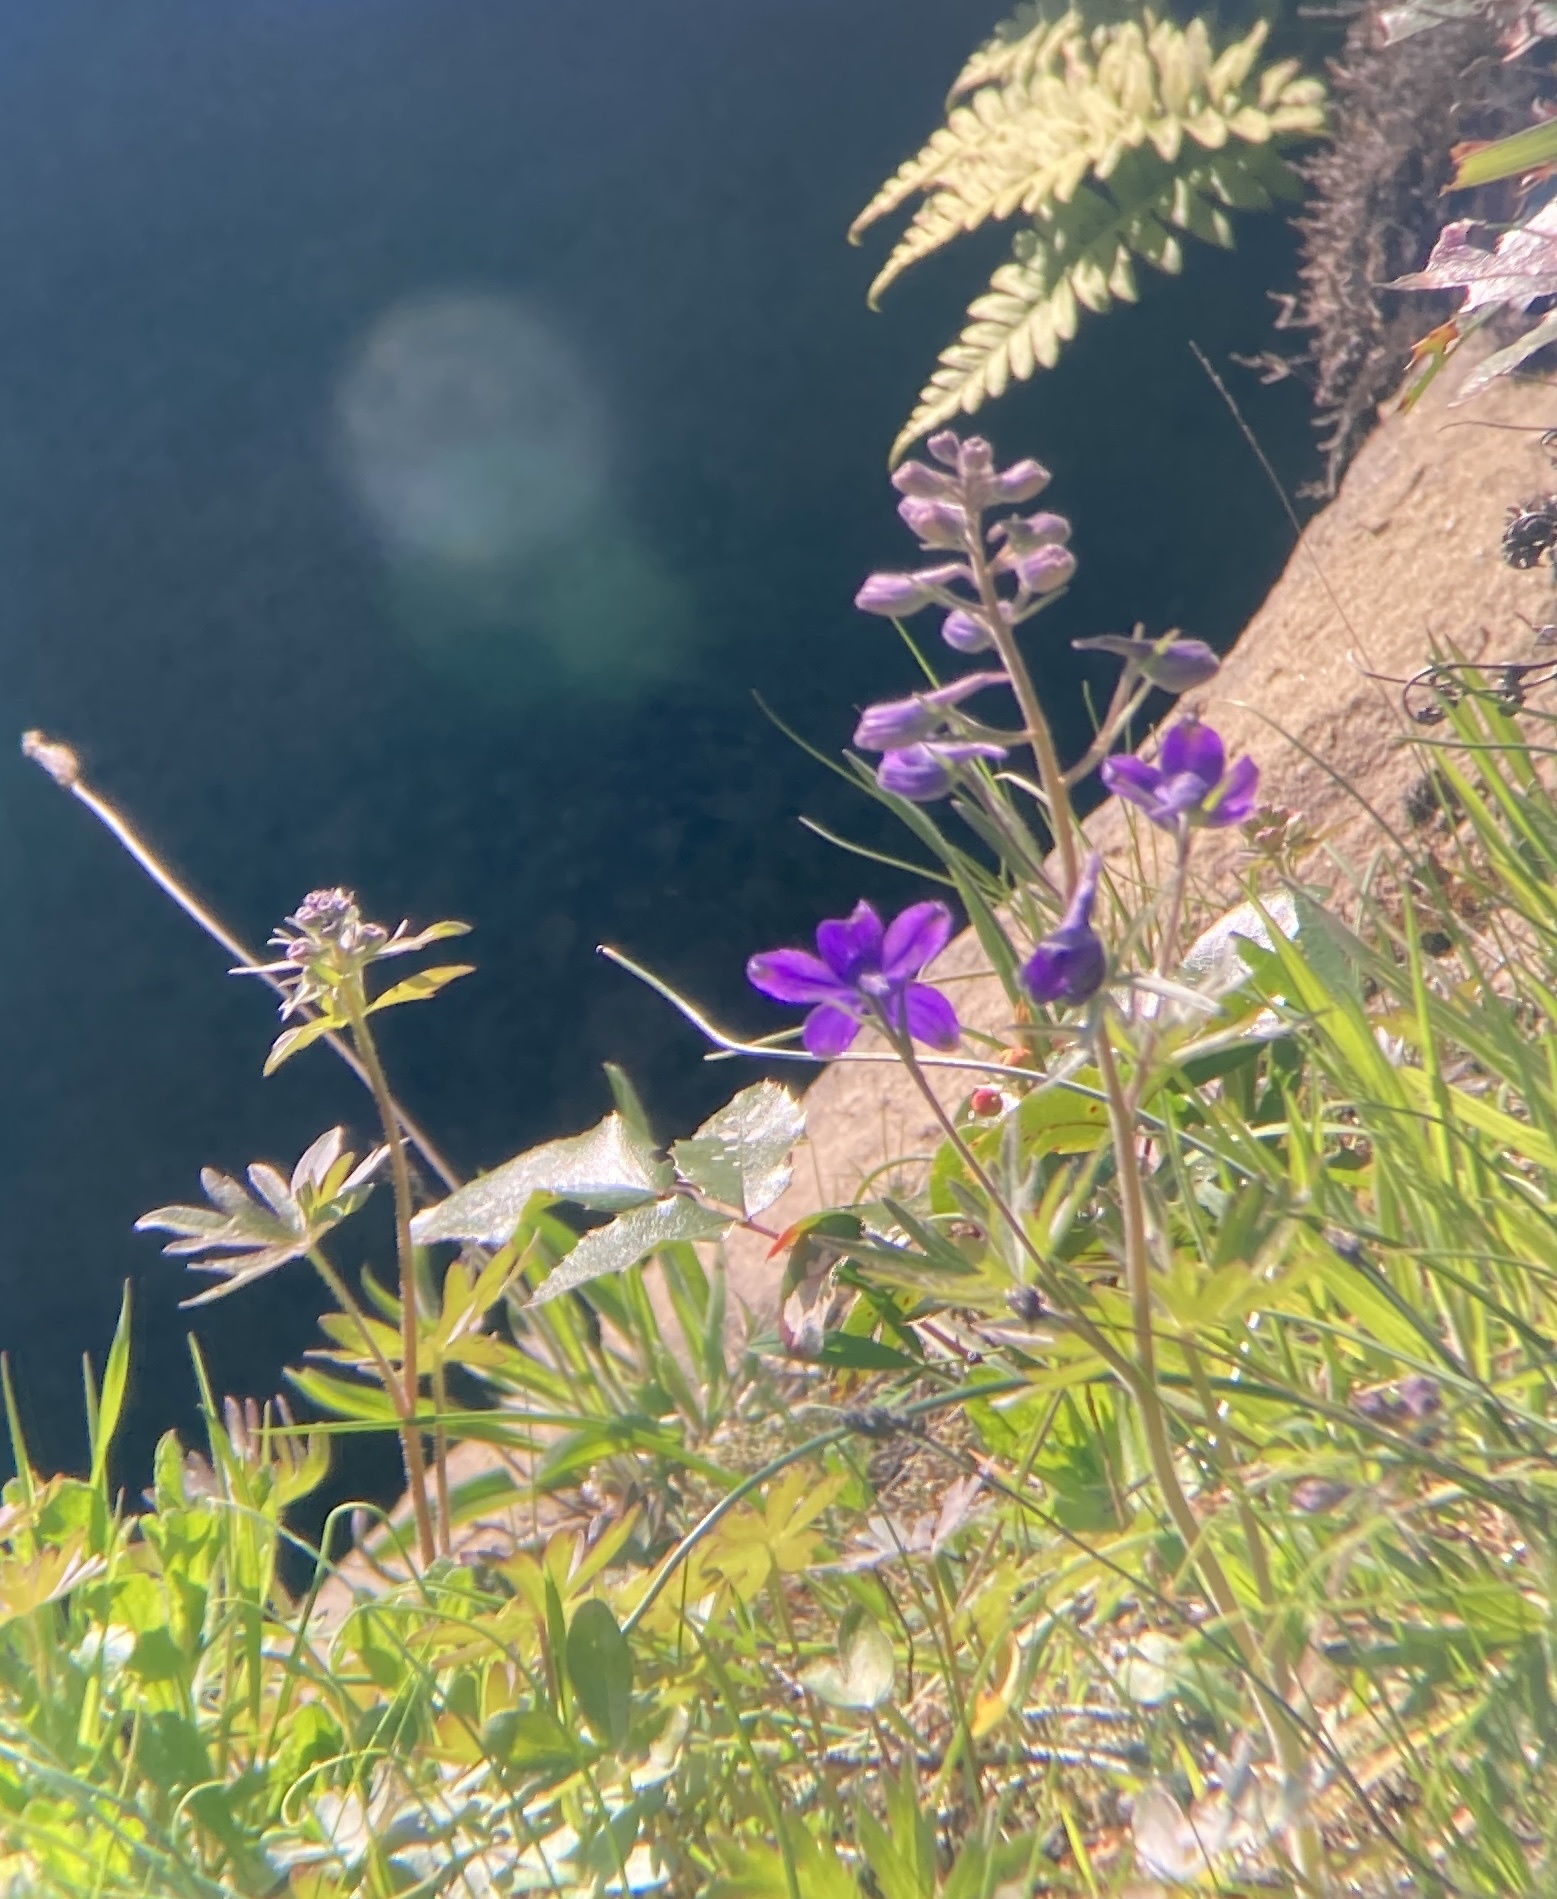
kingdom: Plantae
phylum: Tracheophyta
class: Magnoliopsida
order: Ranunculales
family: Ranunculaceae
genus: Delphinium
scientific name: Delphinium menziesii
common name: Menzies's larkspur
